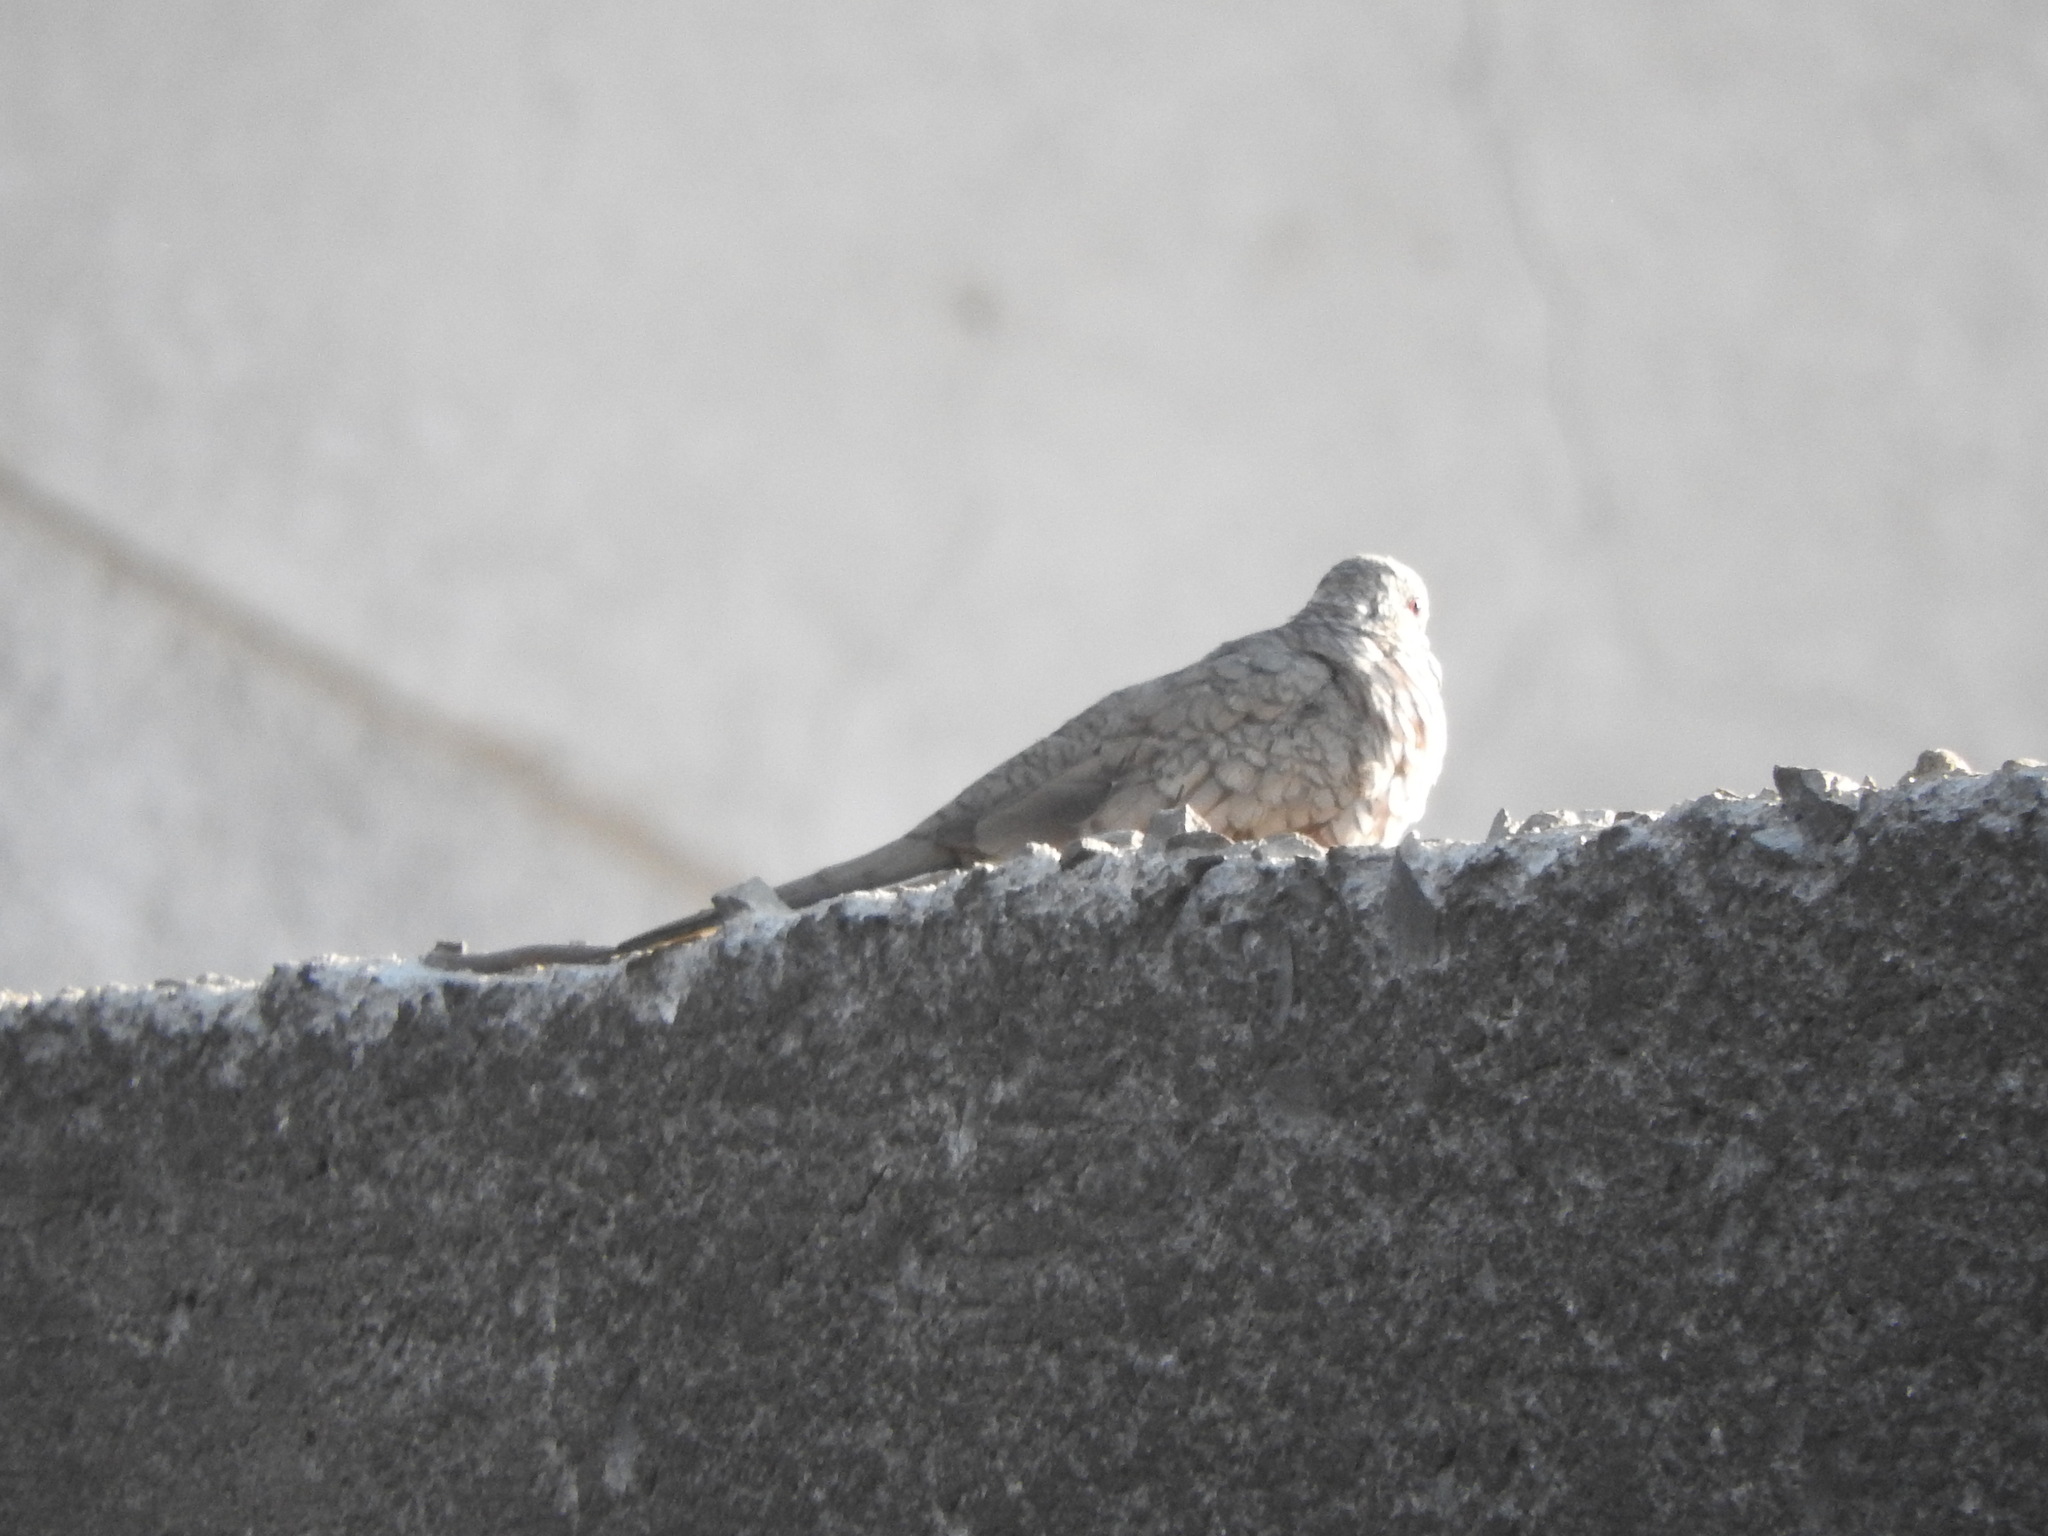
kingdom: Animalia
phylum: Chordata
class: Aves
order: Columbiformes
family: Columbidae
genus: Columbina
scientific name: Columbina inca
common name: Inca dove
